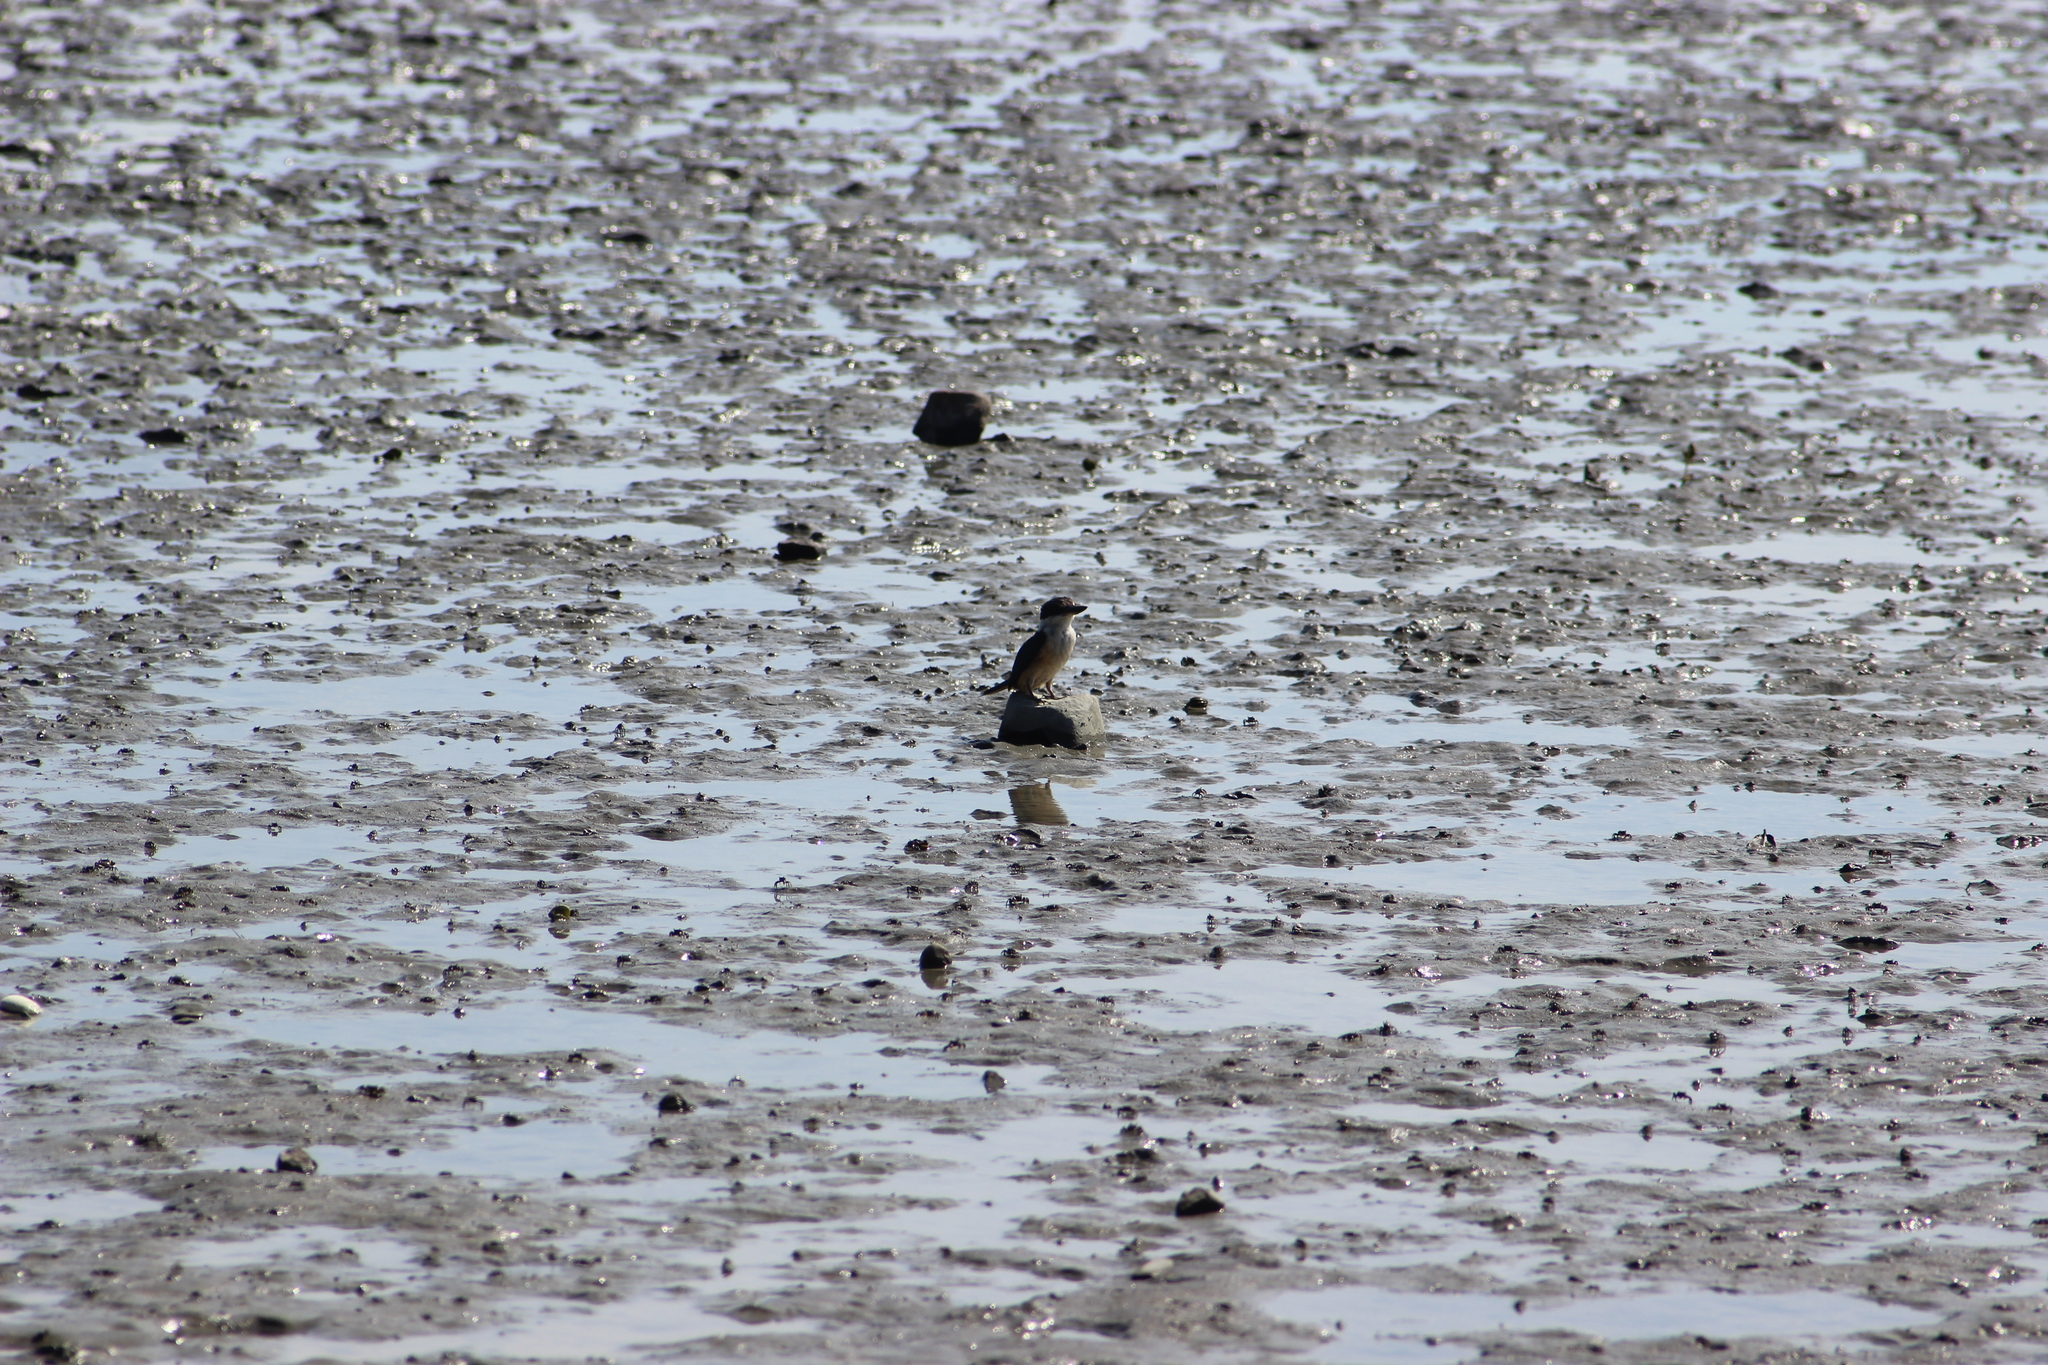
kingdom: Animalia
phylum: Chordata
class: Aves
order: Coraciiformes
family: Alcedinidae
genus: Todiramphus
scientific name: Todiramphus sanctus
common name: Sacred kingfisher
